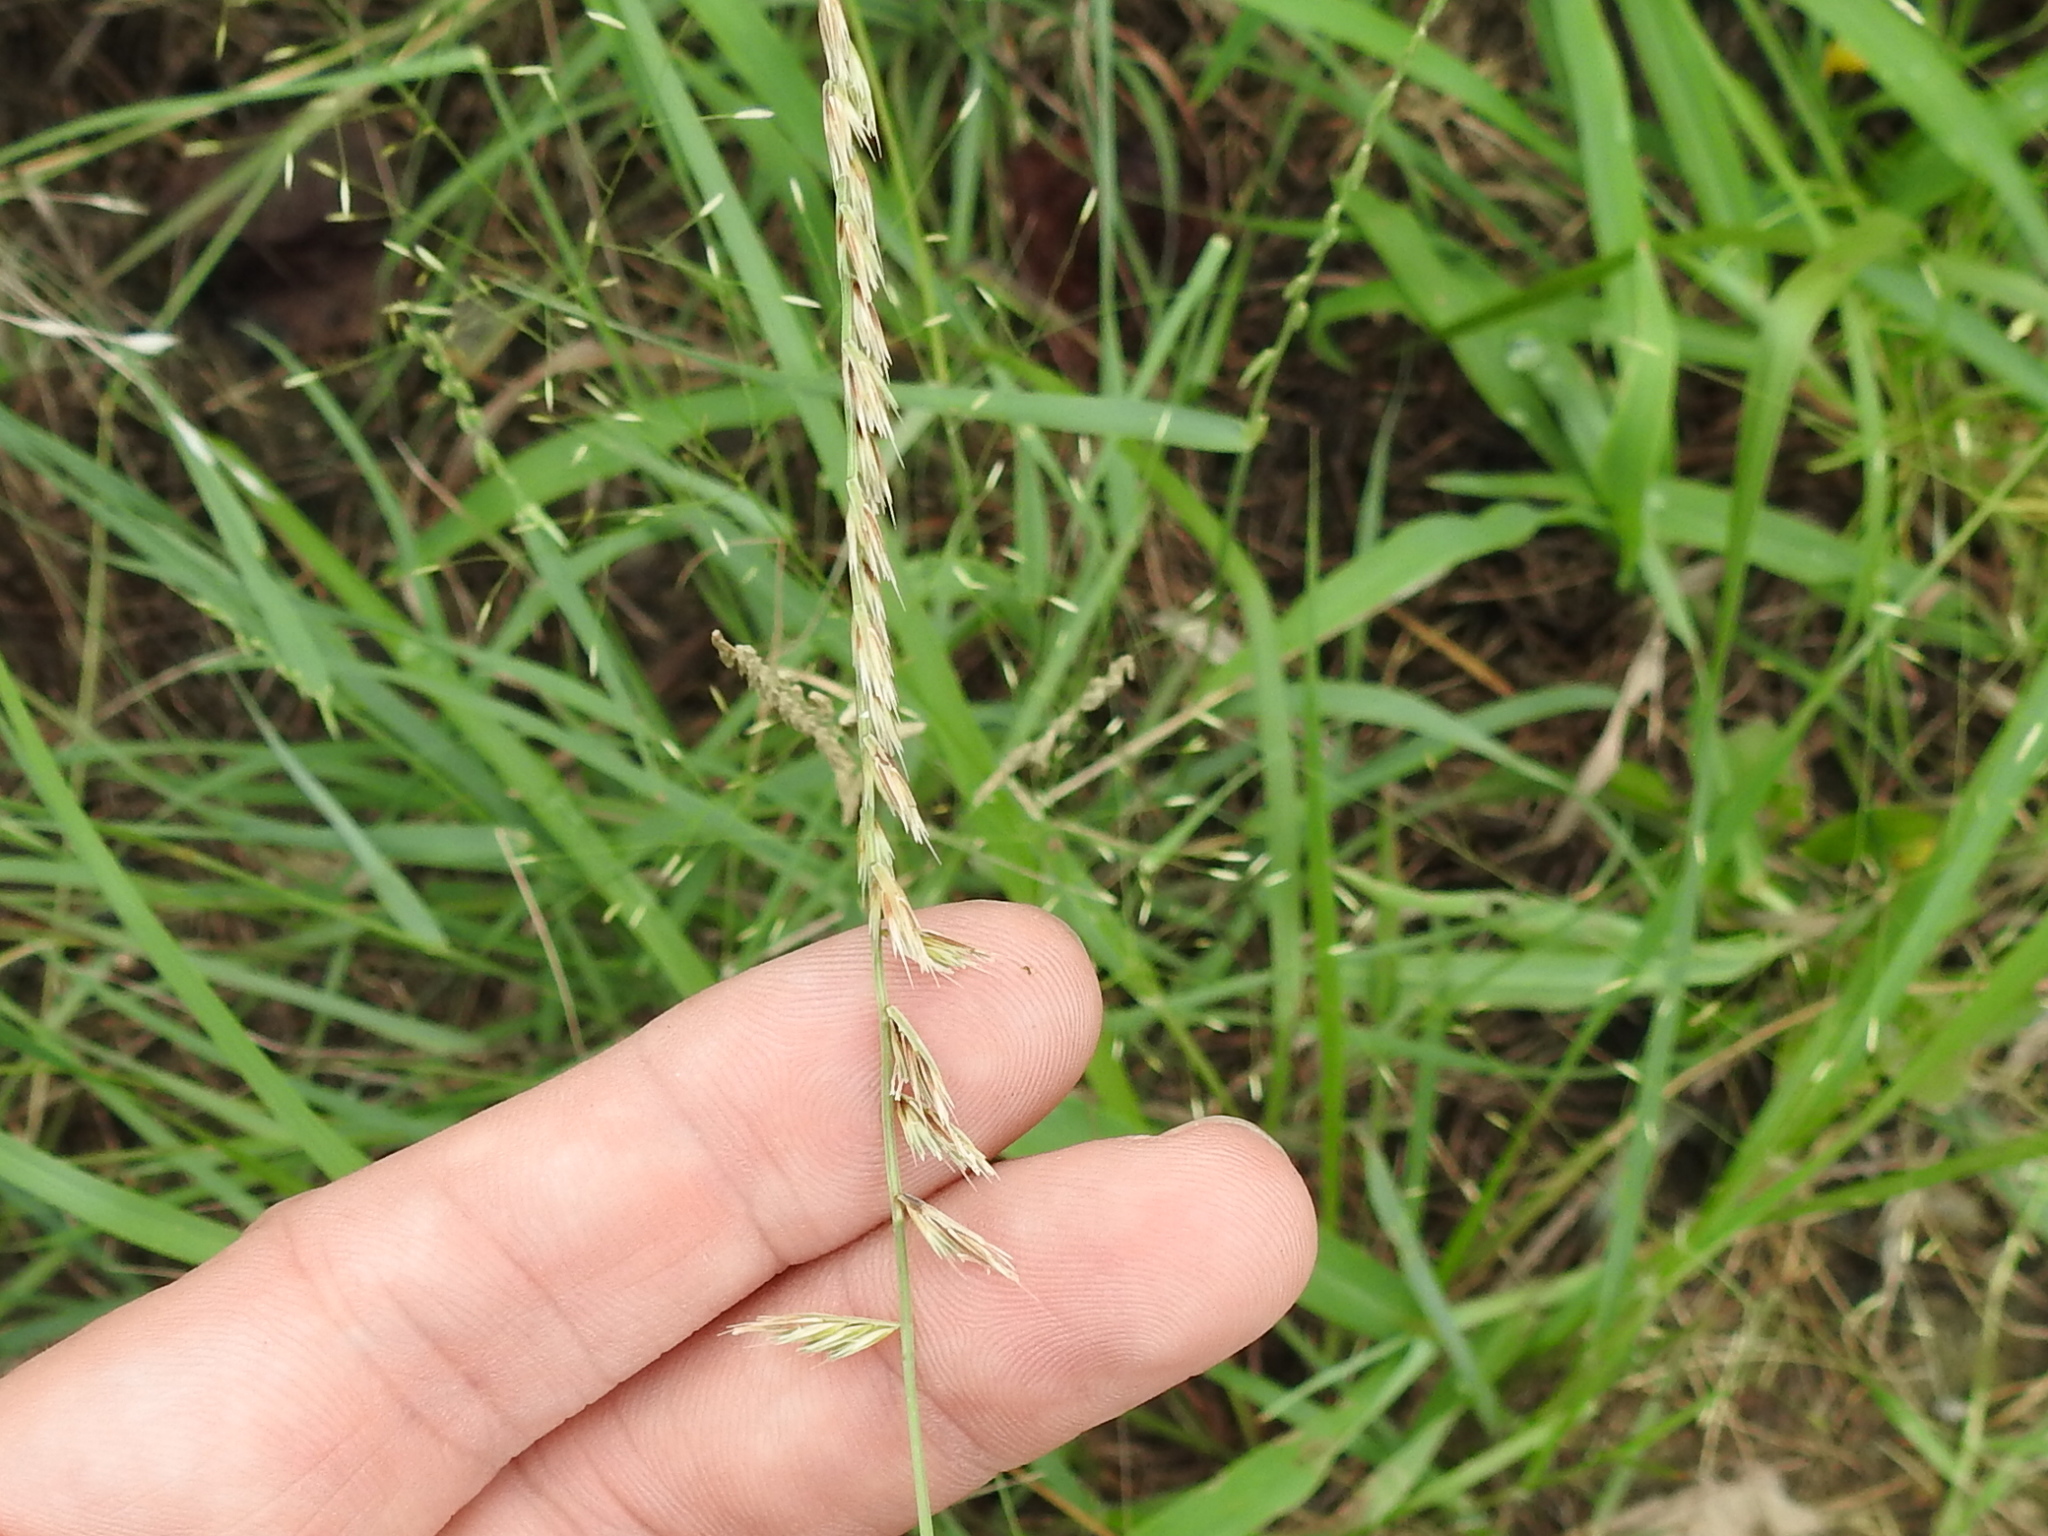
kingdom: Plantae
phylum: Tracheophyta
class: Liliopsida
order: Poales
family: Poaceae
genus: Bouteloua
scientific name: Bouteloua curtipendula
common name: Side-oats grama
